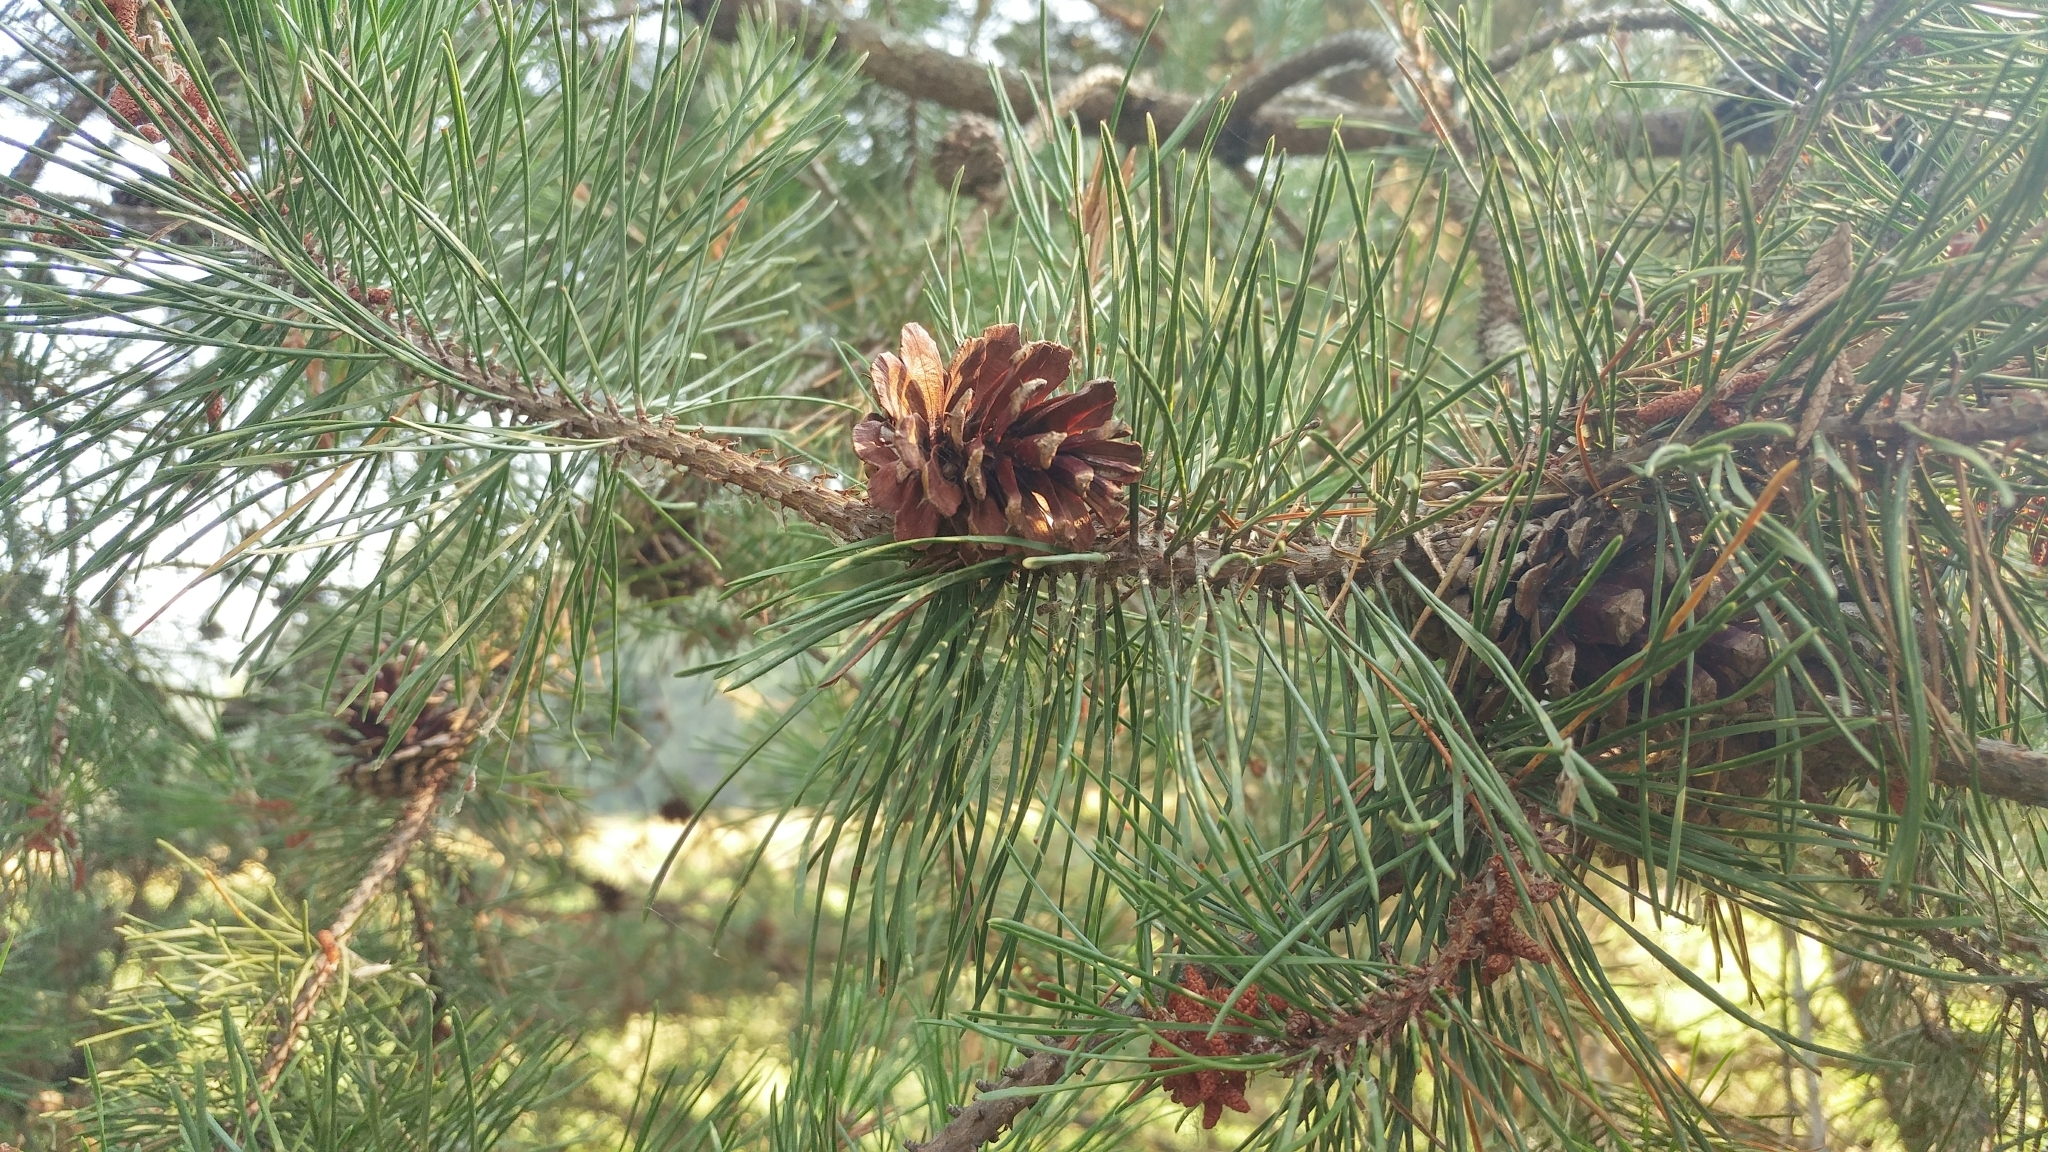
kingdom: Plantae
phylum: Tracheophyta
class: Pinopsida
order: Pinales
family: Pinaceae
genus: Pinus
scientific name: Pinus contorta
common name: Lodgepole pine
